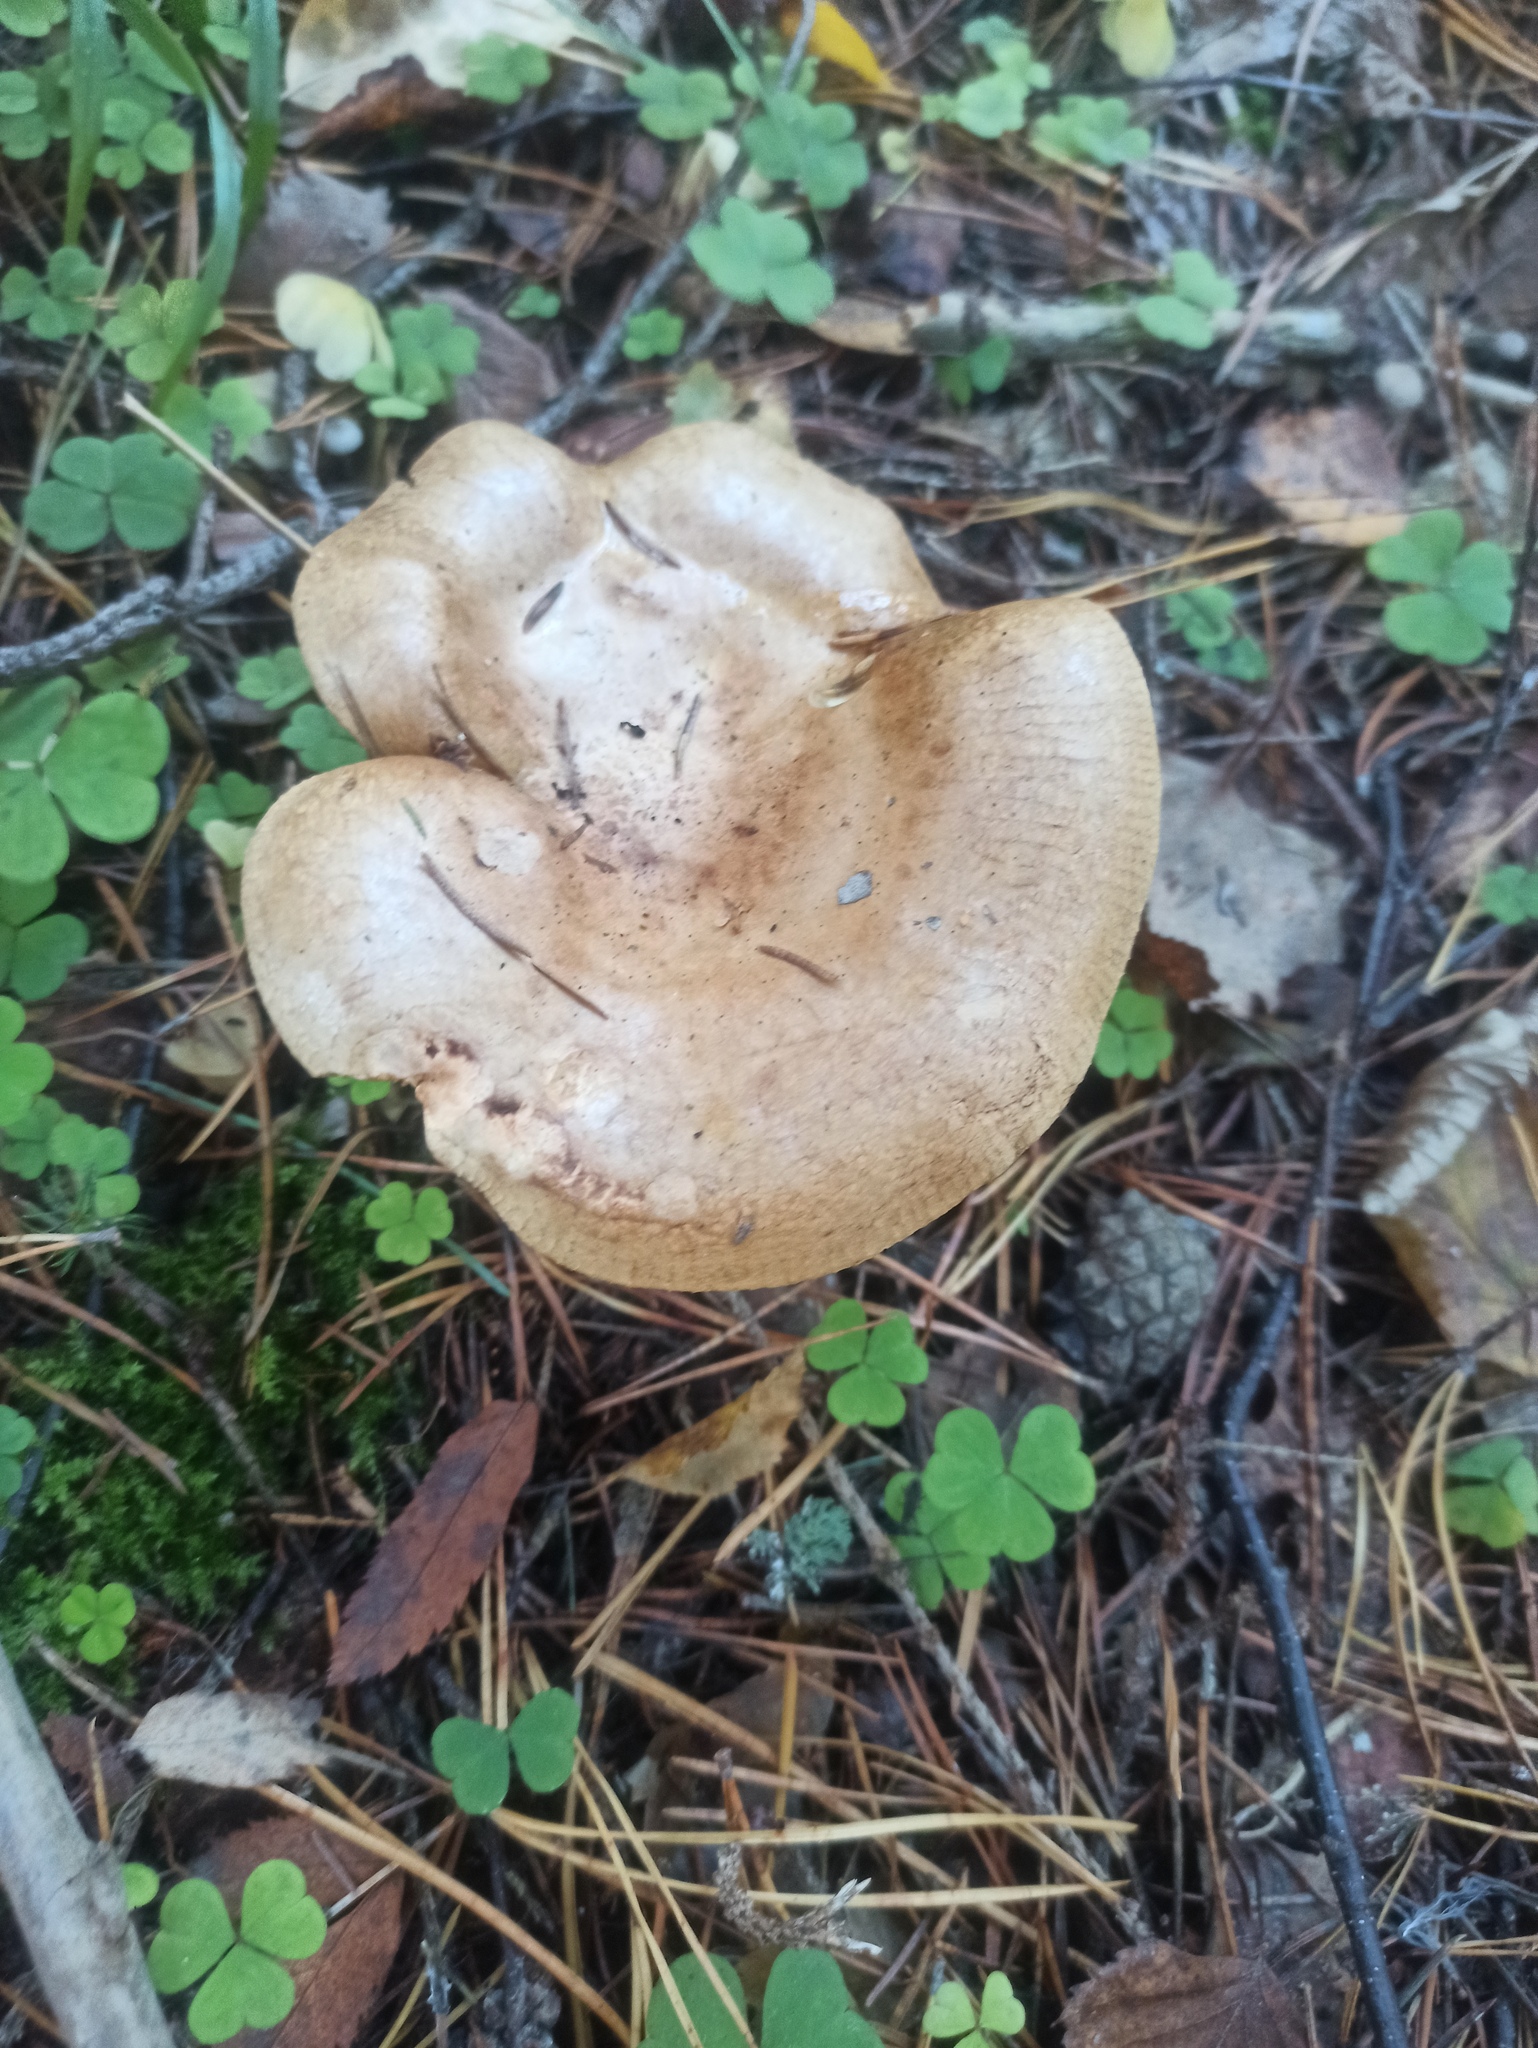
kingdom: Fungi
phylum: Basidiomycota
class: Agaricomycetes
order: Boletales
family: Paxillaceae
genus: Paxillus
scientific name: Paxillus involutus
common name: Brown roll rim
